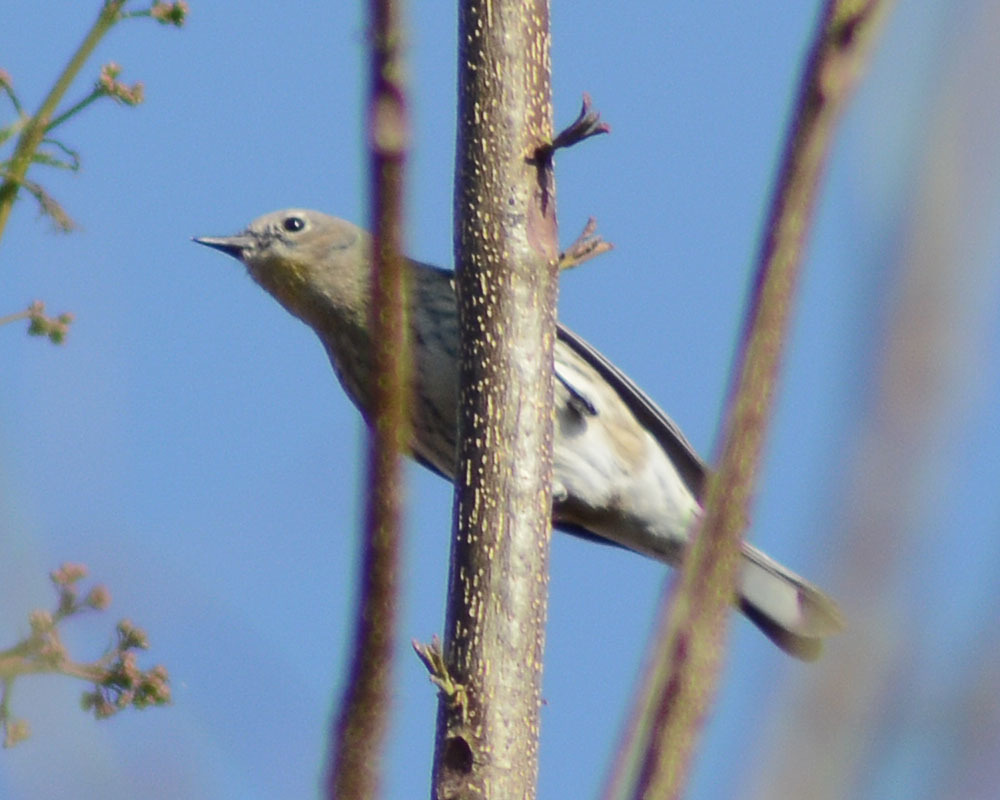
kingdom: Animalia
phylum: Chordata
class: Aves
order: Passeriformes
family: Parulidae
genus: Setophaga
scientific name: Setophaga coronata
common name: Myrtle warbler
